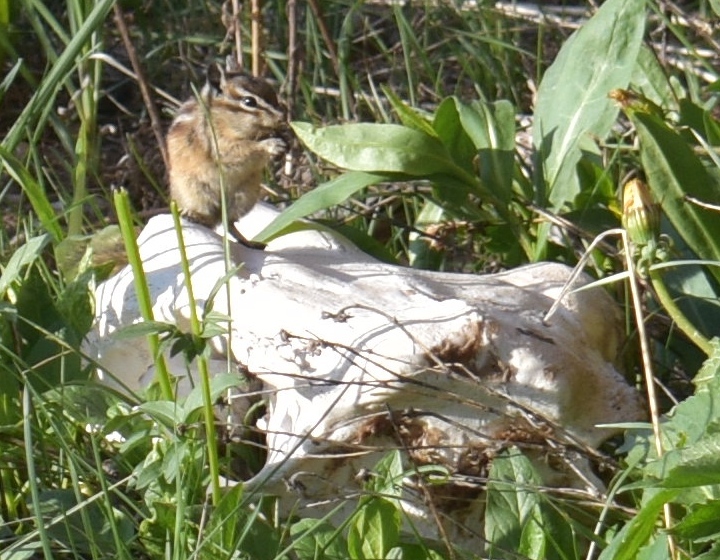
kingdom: Animalia
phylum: Chordata
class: Mammalia
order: Rodentia
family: Sciuridae
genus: Tamias
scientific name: Tamias minimus
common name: Least chipmunk
